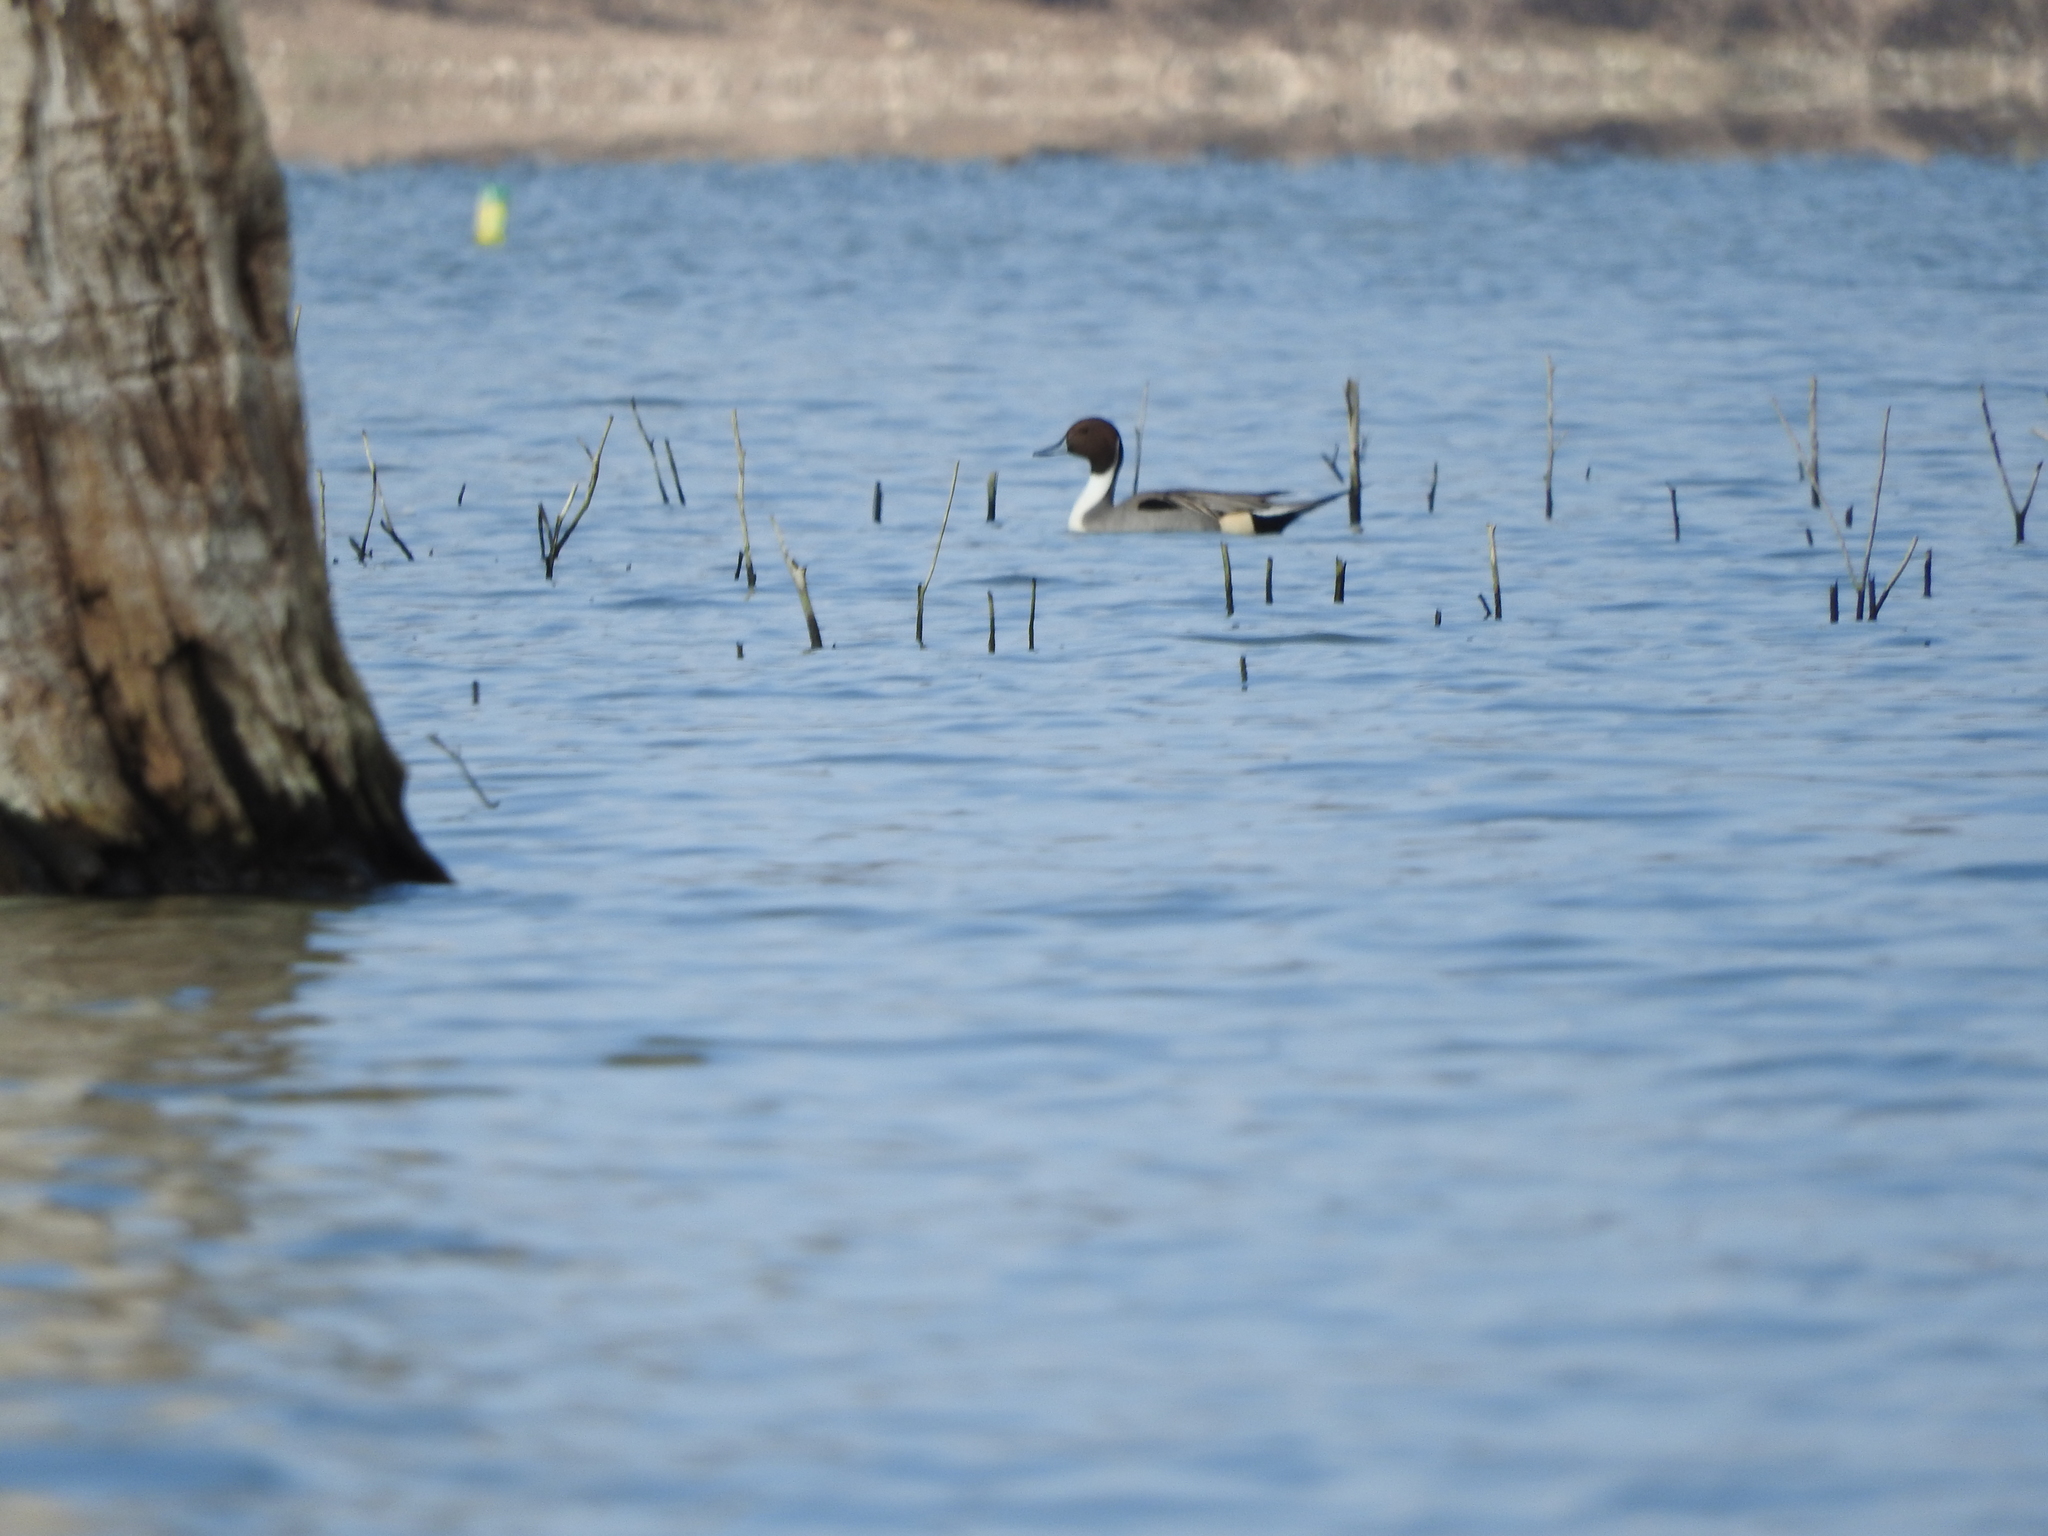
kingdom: Animalia
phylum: Chordata
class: Aves
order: Anseriformes
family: Anatidae
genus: Anas
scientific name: Anas acuta
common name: Northern pintail
